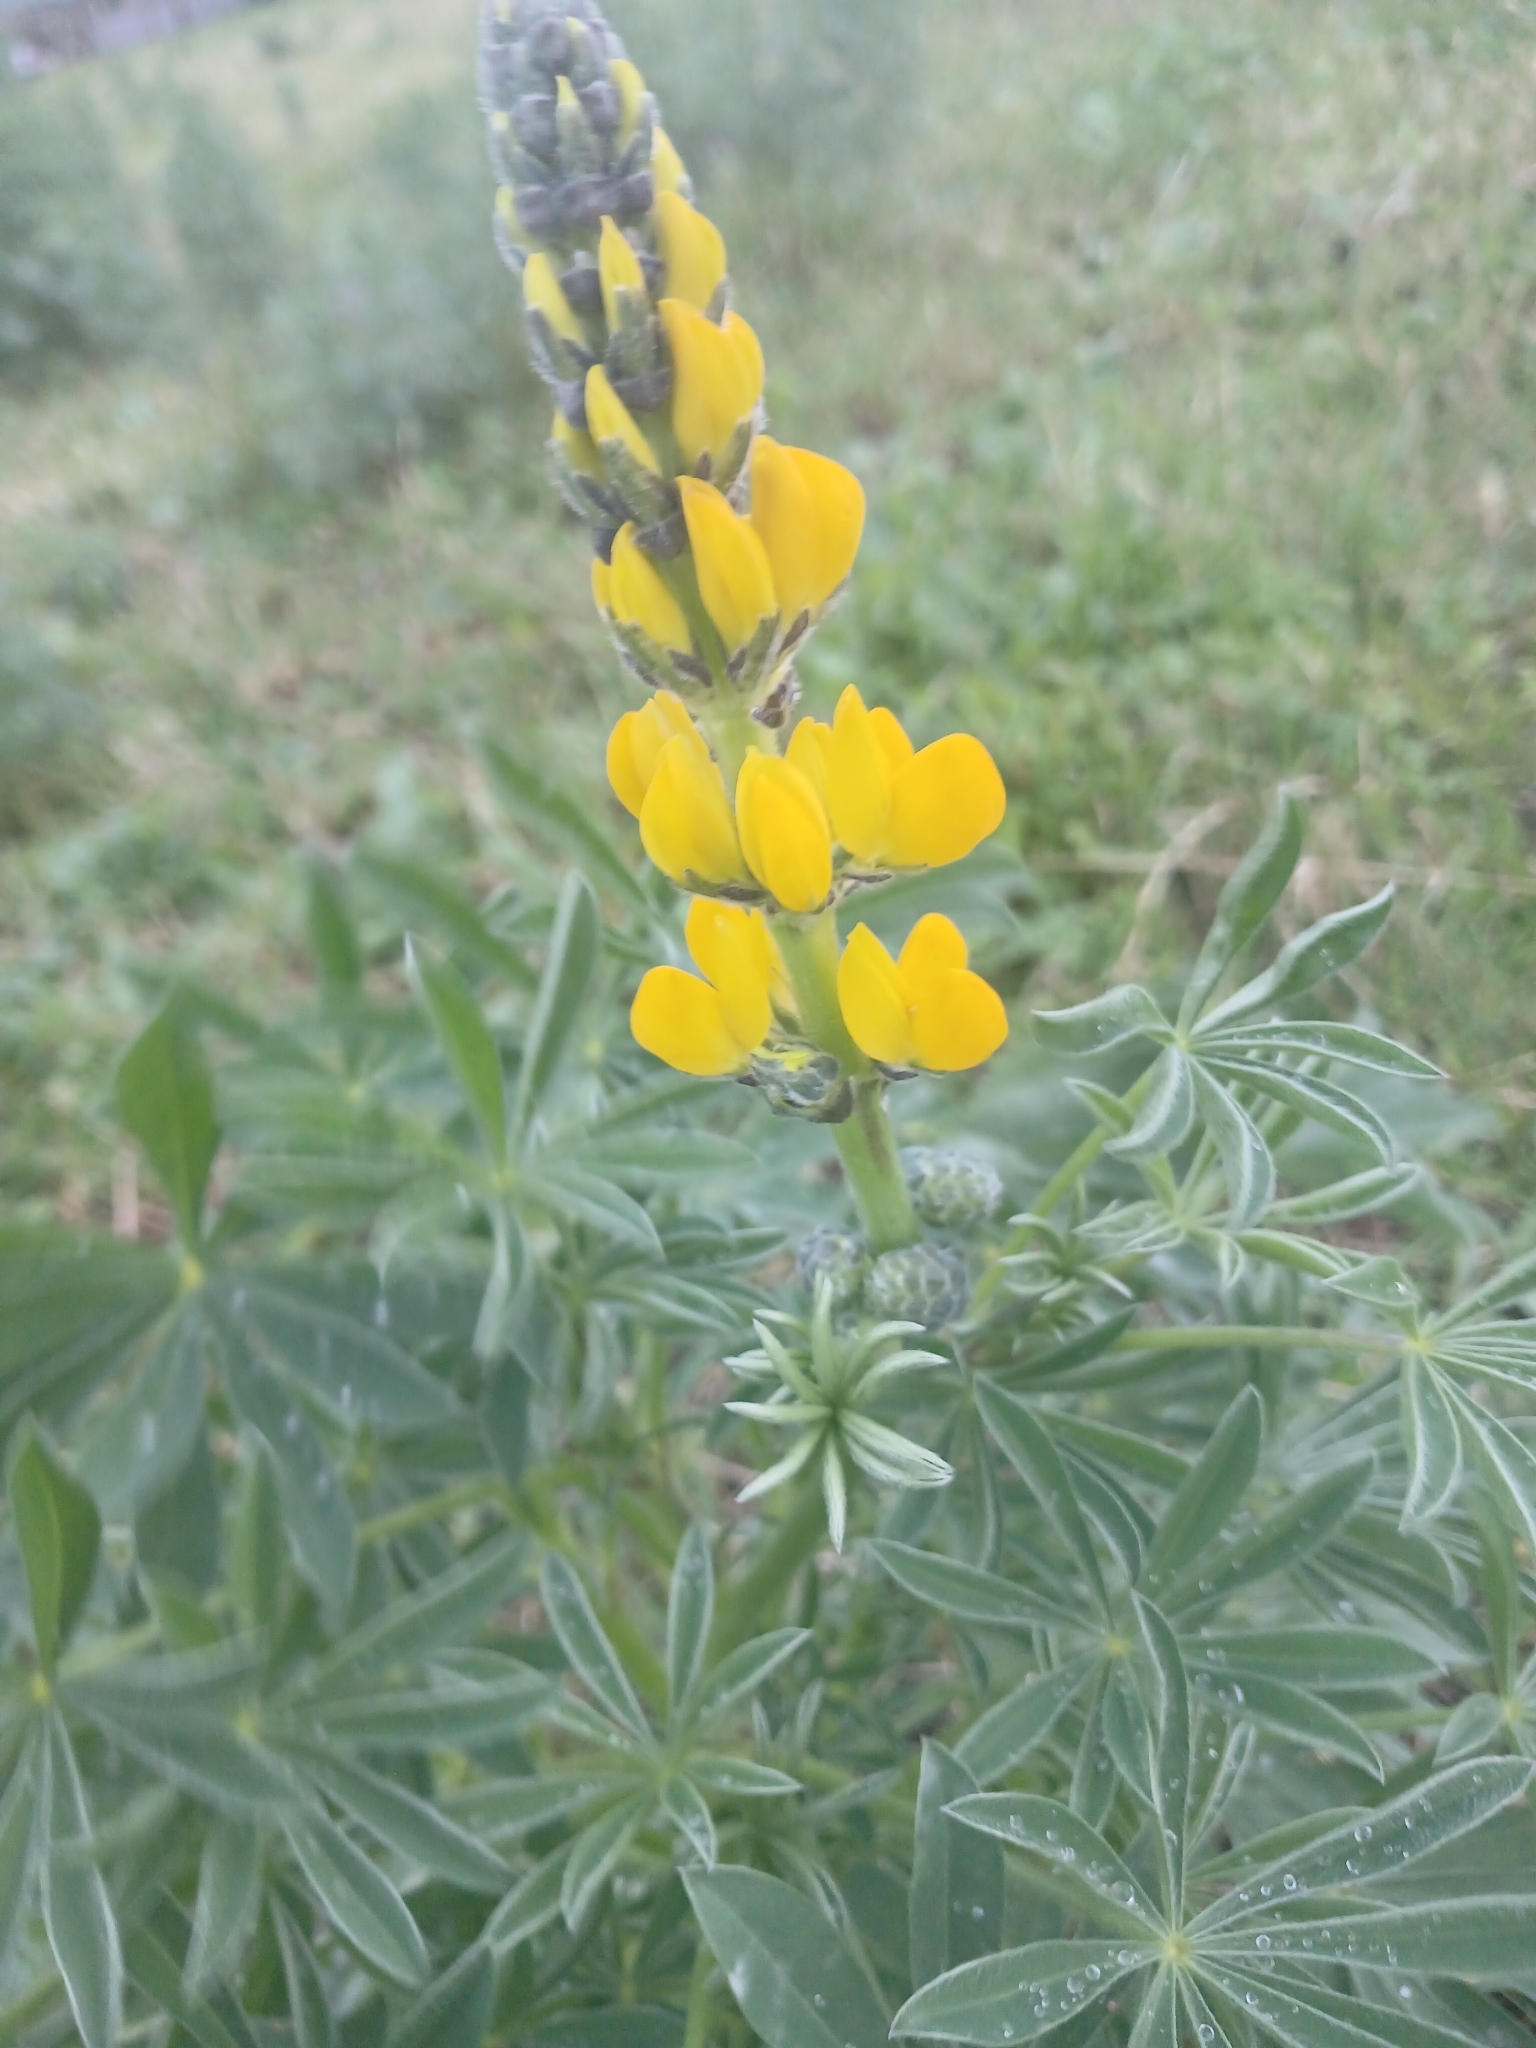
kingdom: Plantae
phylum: Tracheophyta
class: Magnoliopsida
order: Fabales
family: Fabaceae
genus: Lupinus
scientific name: Lupinus luteus
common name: European yellow lupine
